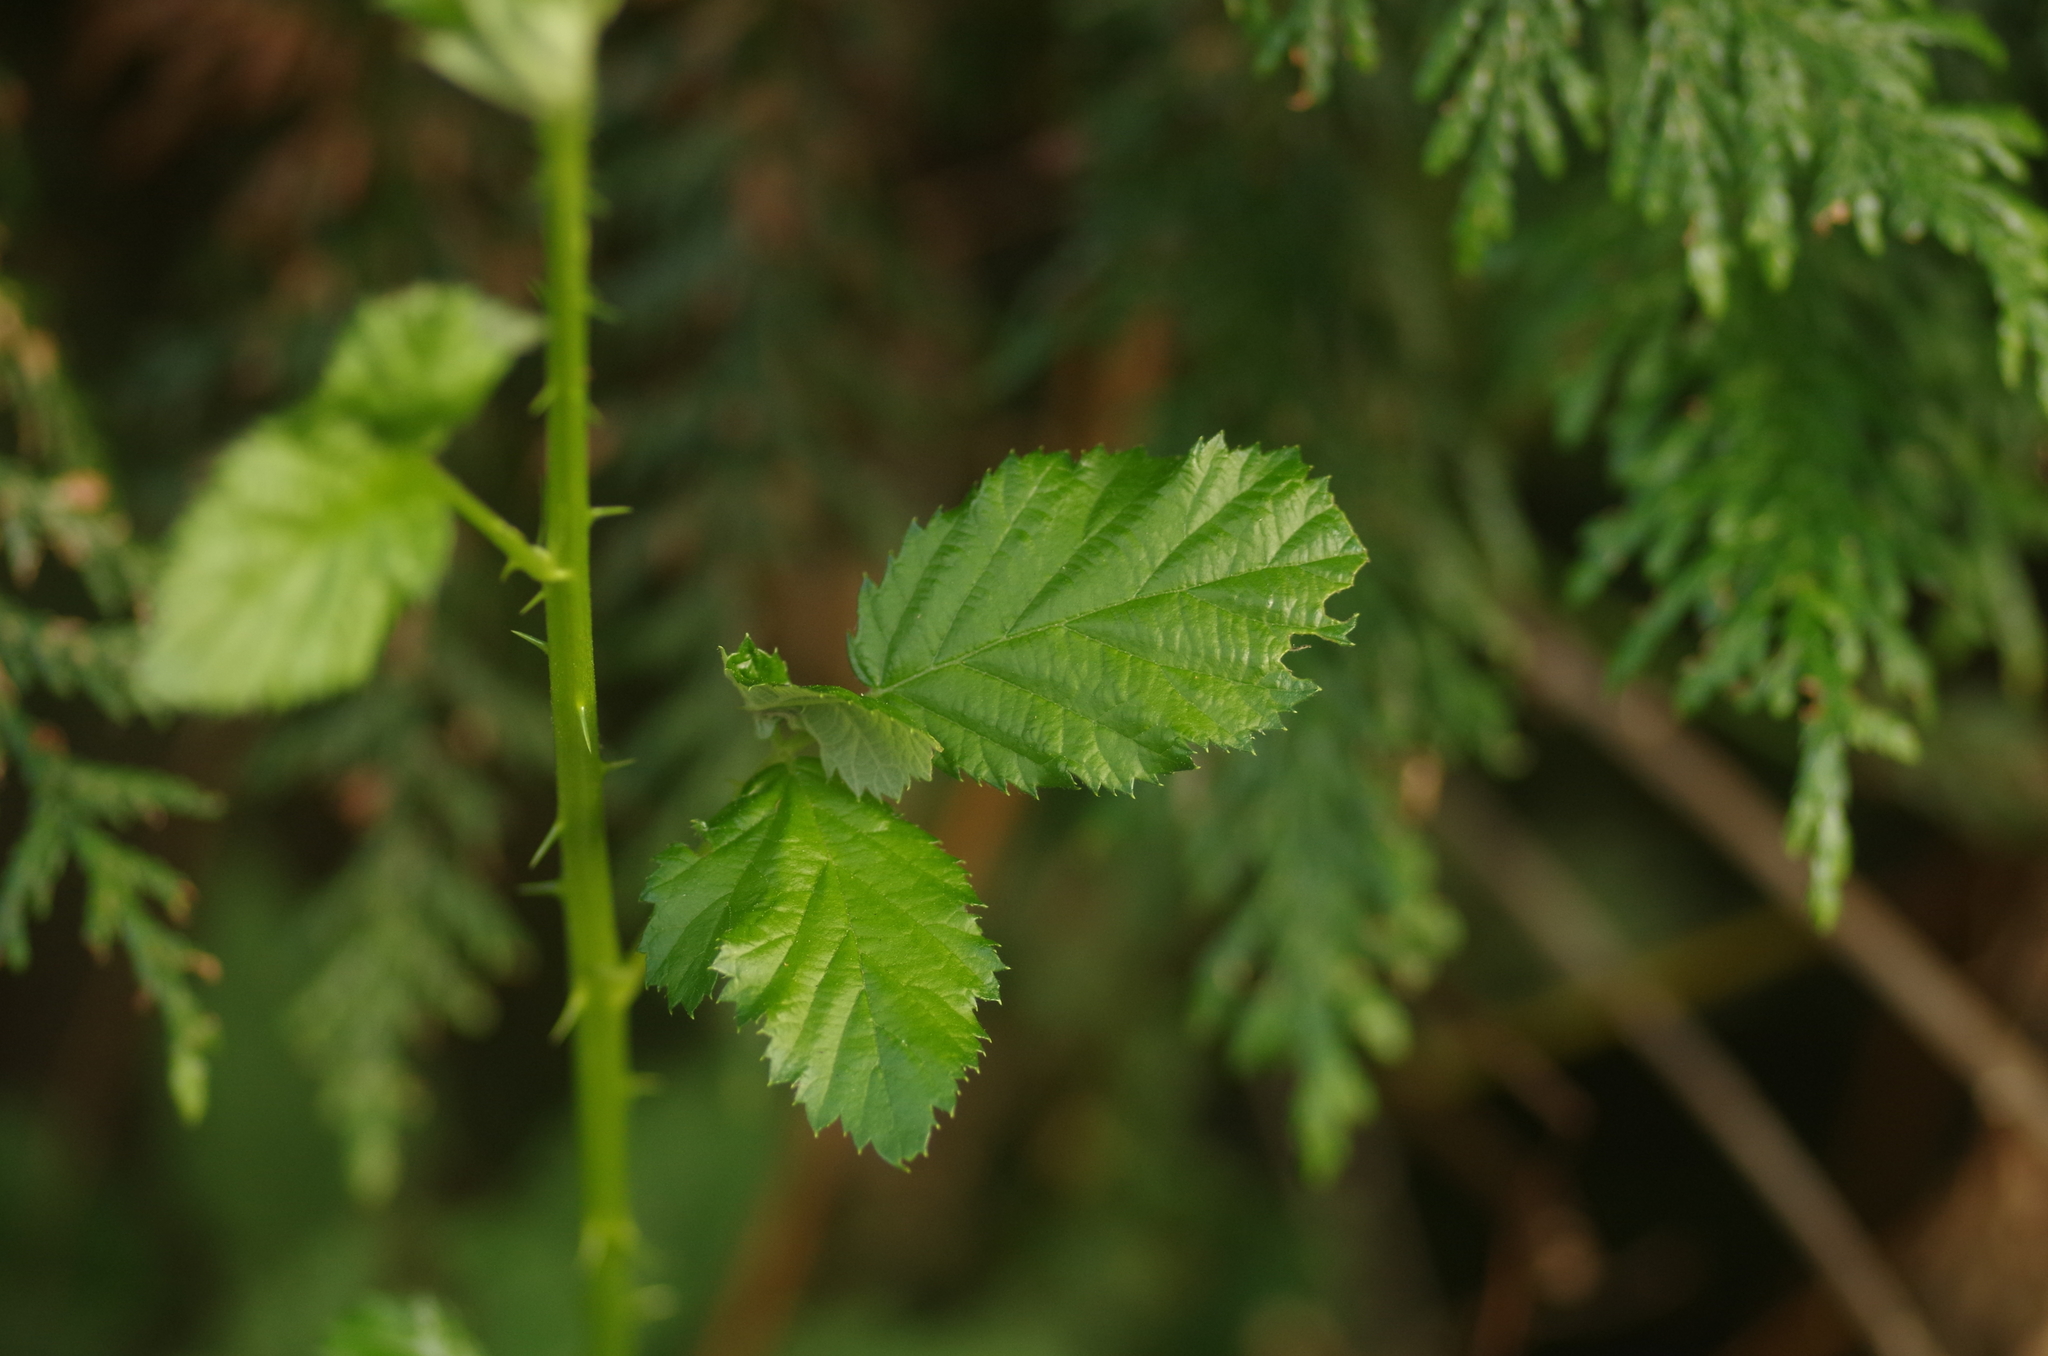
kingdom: Plantae
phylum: Tracheophyta
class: Magnoliopsida
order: Rosales
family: Rosaceae
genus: Rubus
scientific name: Rubus armeniacus
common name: Himalayan blackberry
